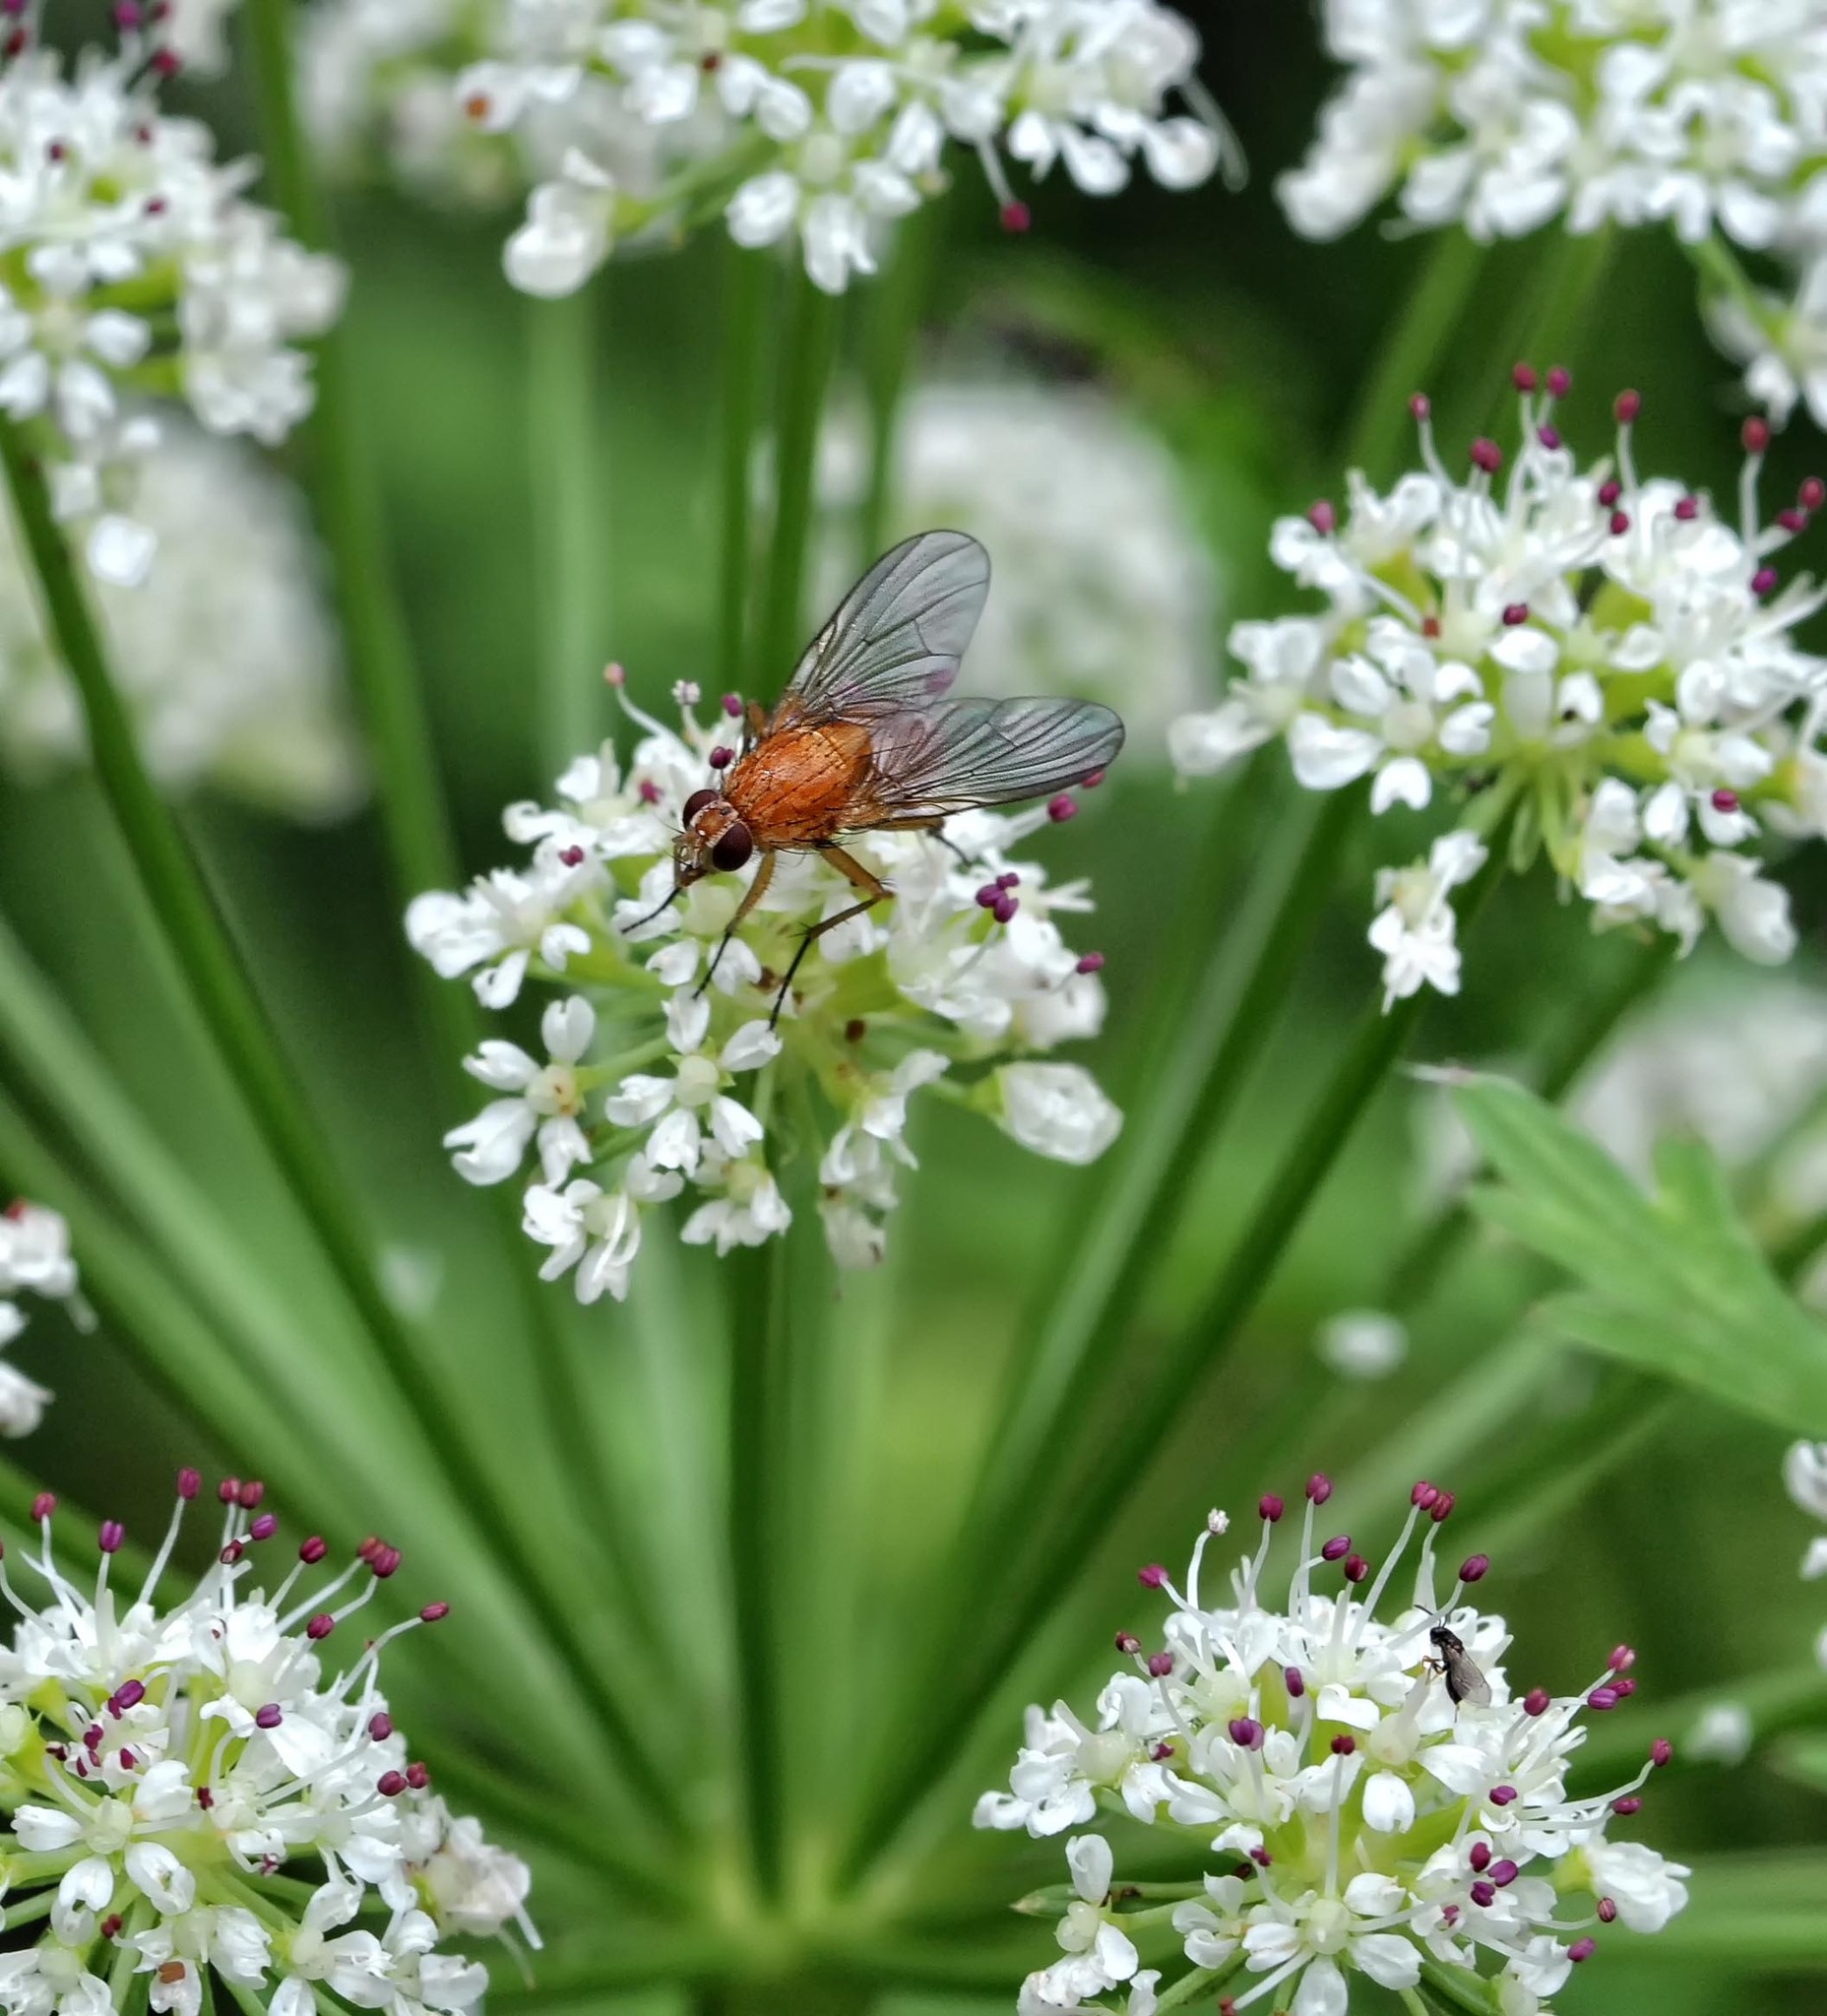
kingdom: Animalia
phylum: Arthropoda
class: Insecta
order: Diptera
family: Muscidae
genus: Phaonia
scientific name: Phaonia pallida
